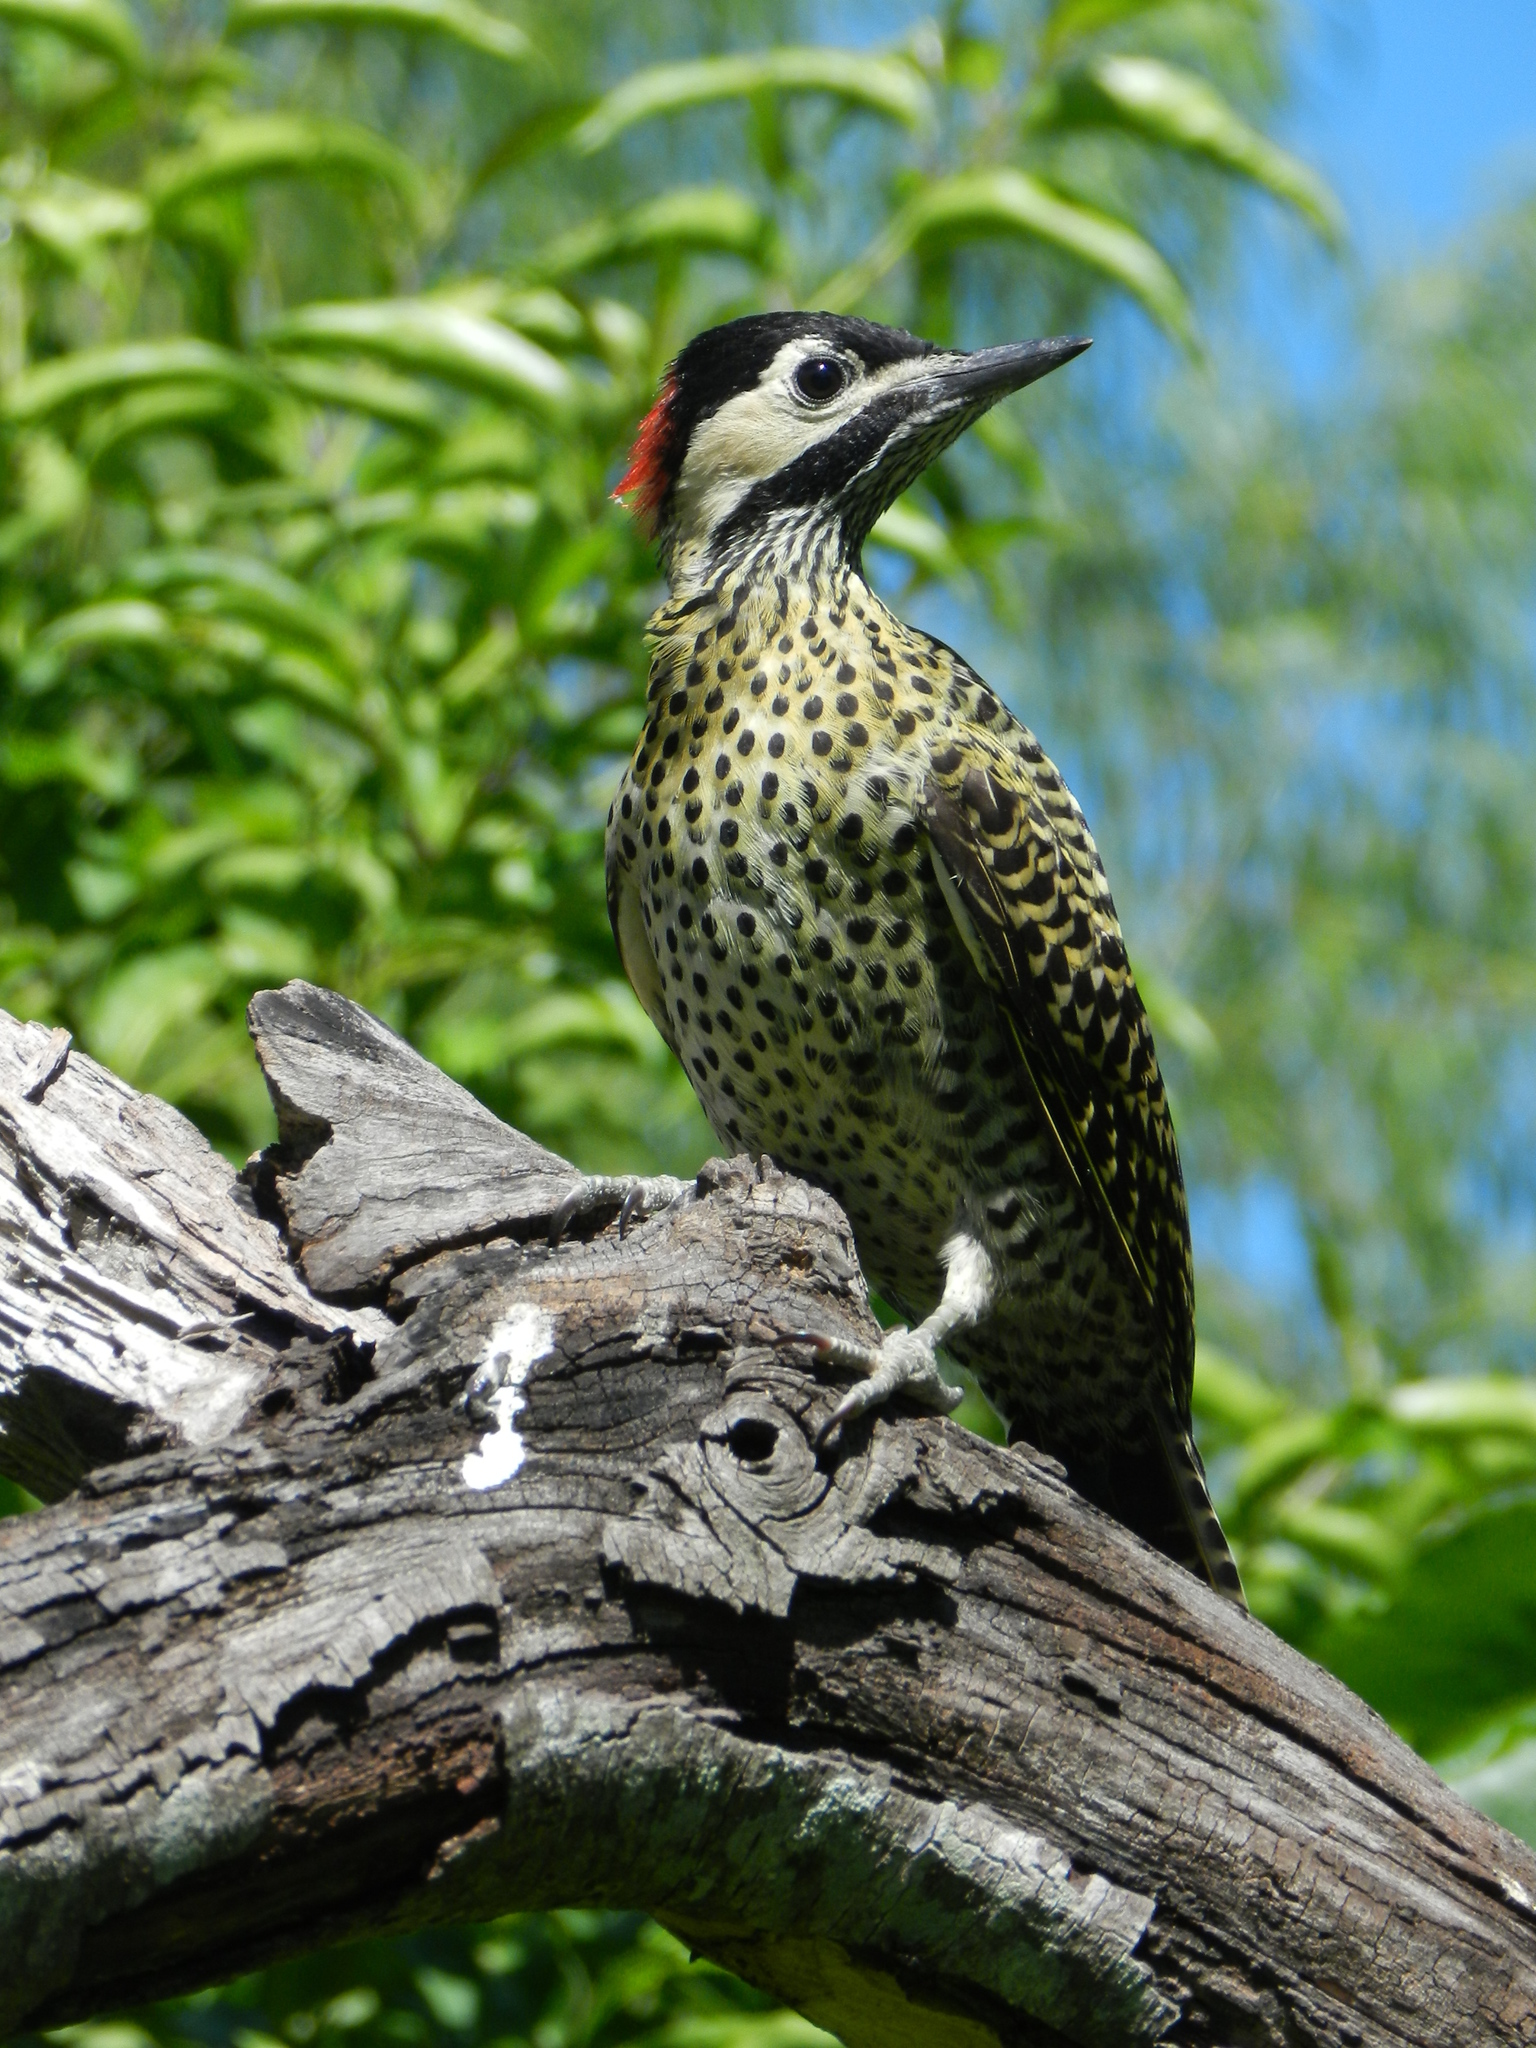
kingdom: Animalia
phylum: Chordata
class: Aves
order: Piciformes
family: Picidae
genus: Colaptes
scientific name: Colaptes melanochloros
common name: Green-barred woodpecker
